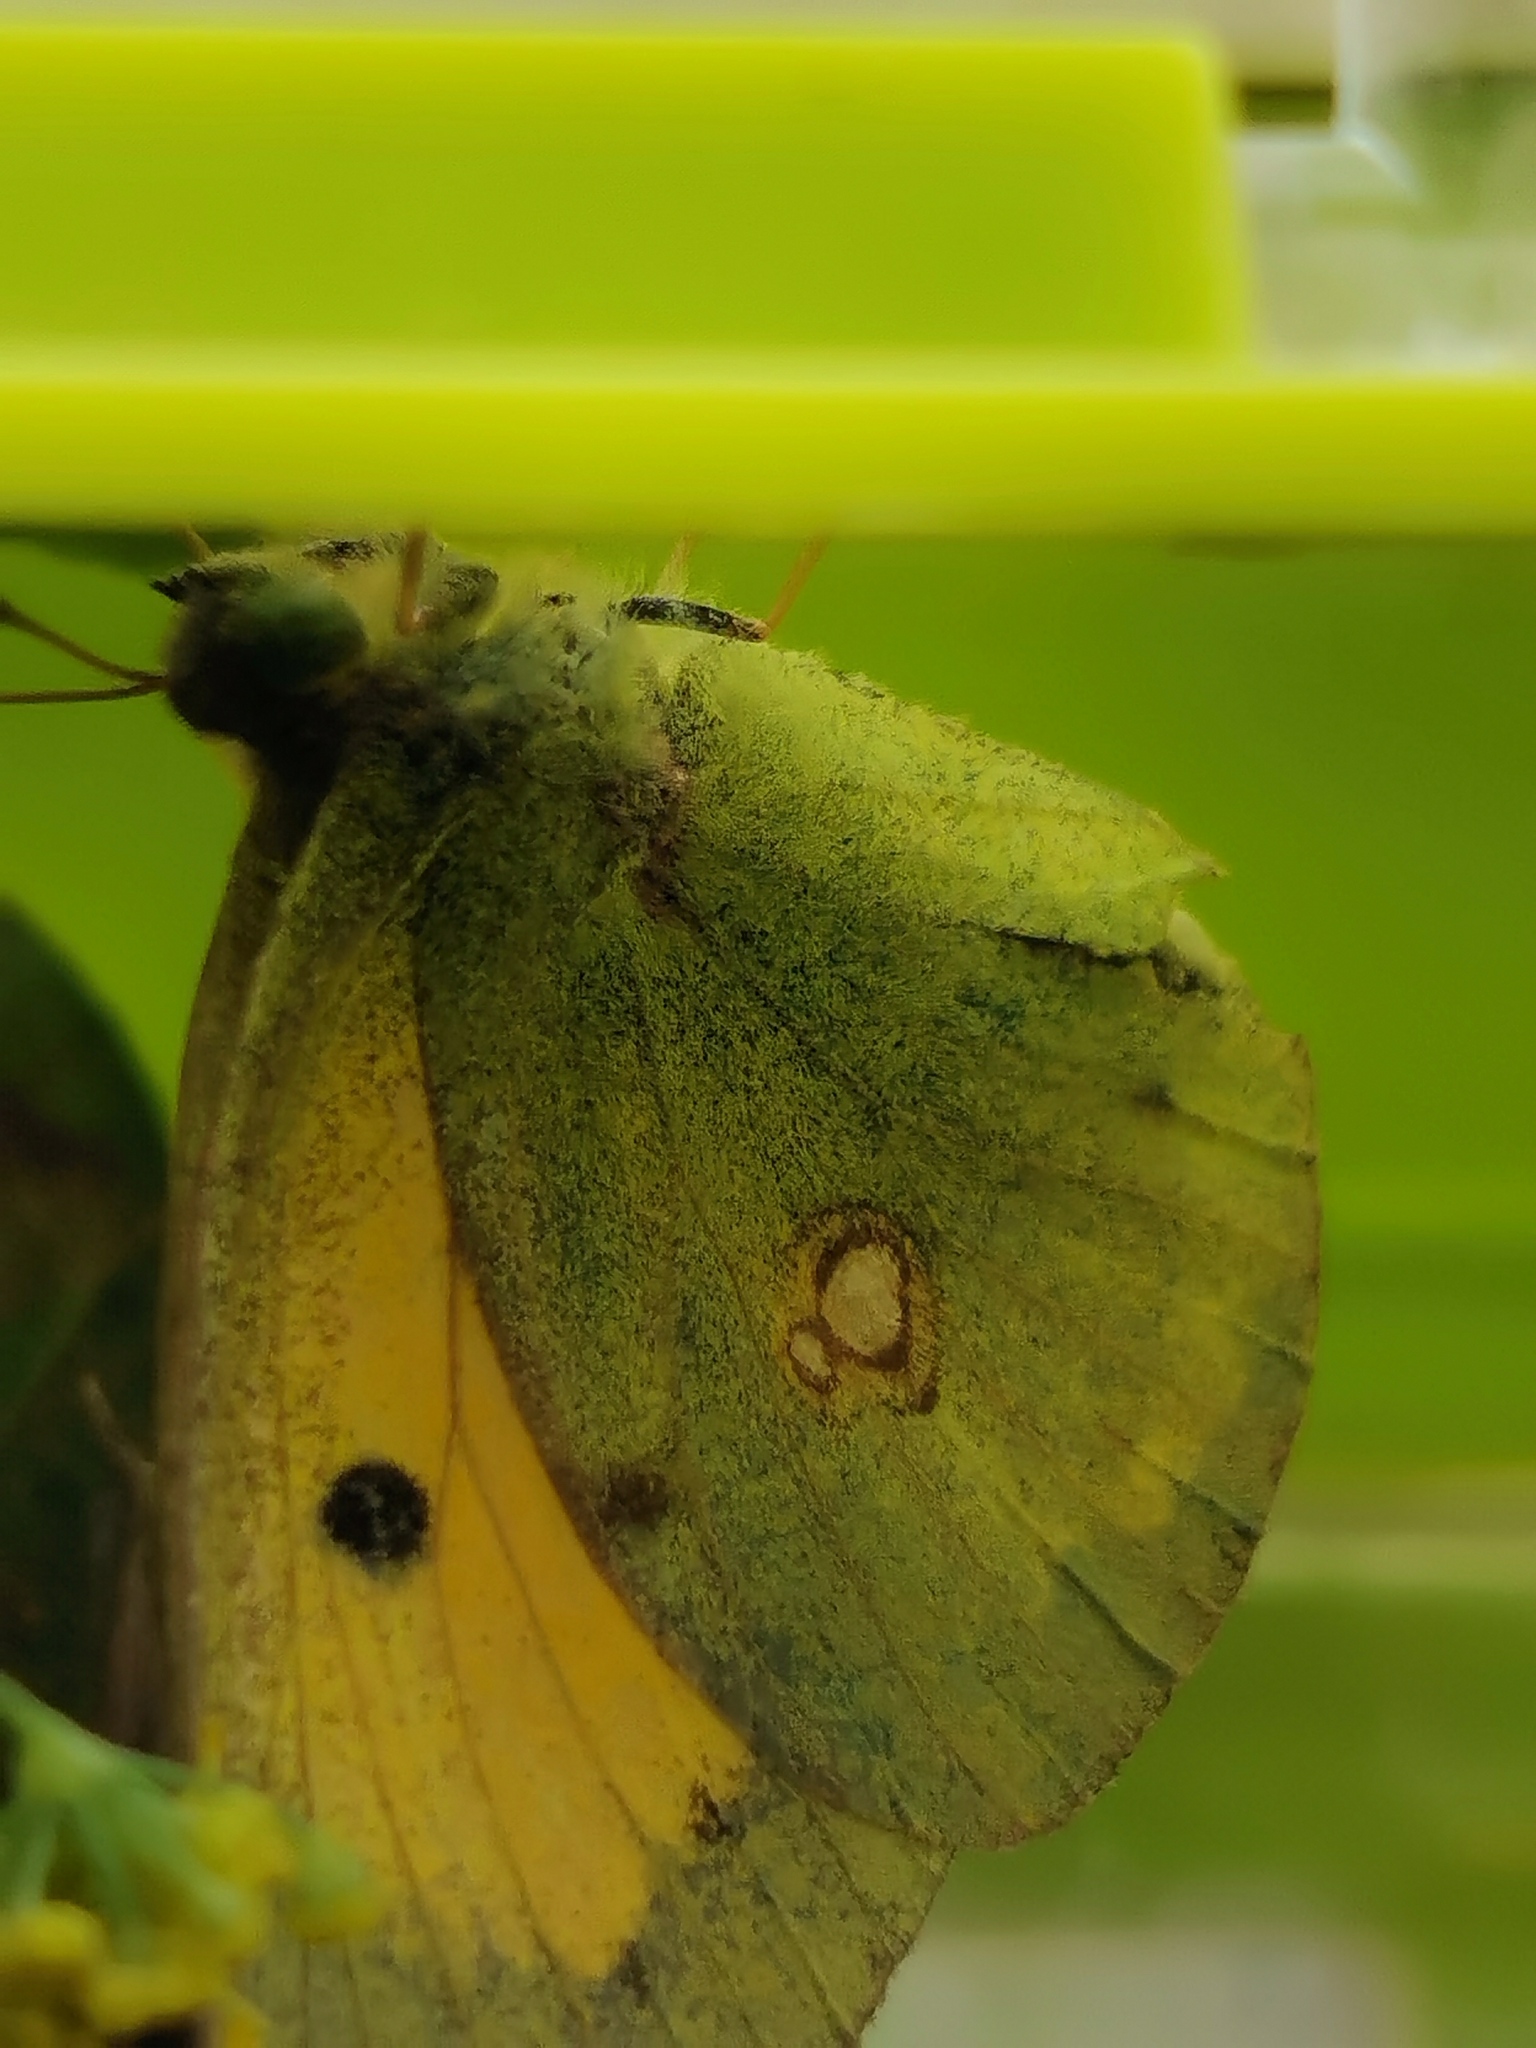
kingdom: Animalia
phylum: Arthropoda
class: Insecta
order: Lepidoptera
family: Pieridae
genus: Colias
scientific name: Colias croceus
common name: Clouded yellow
